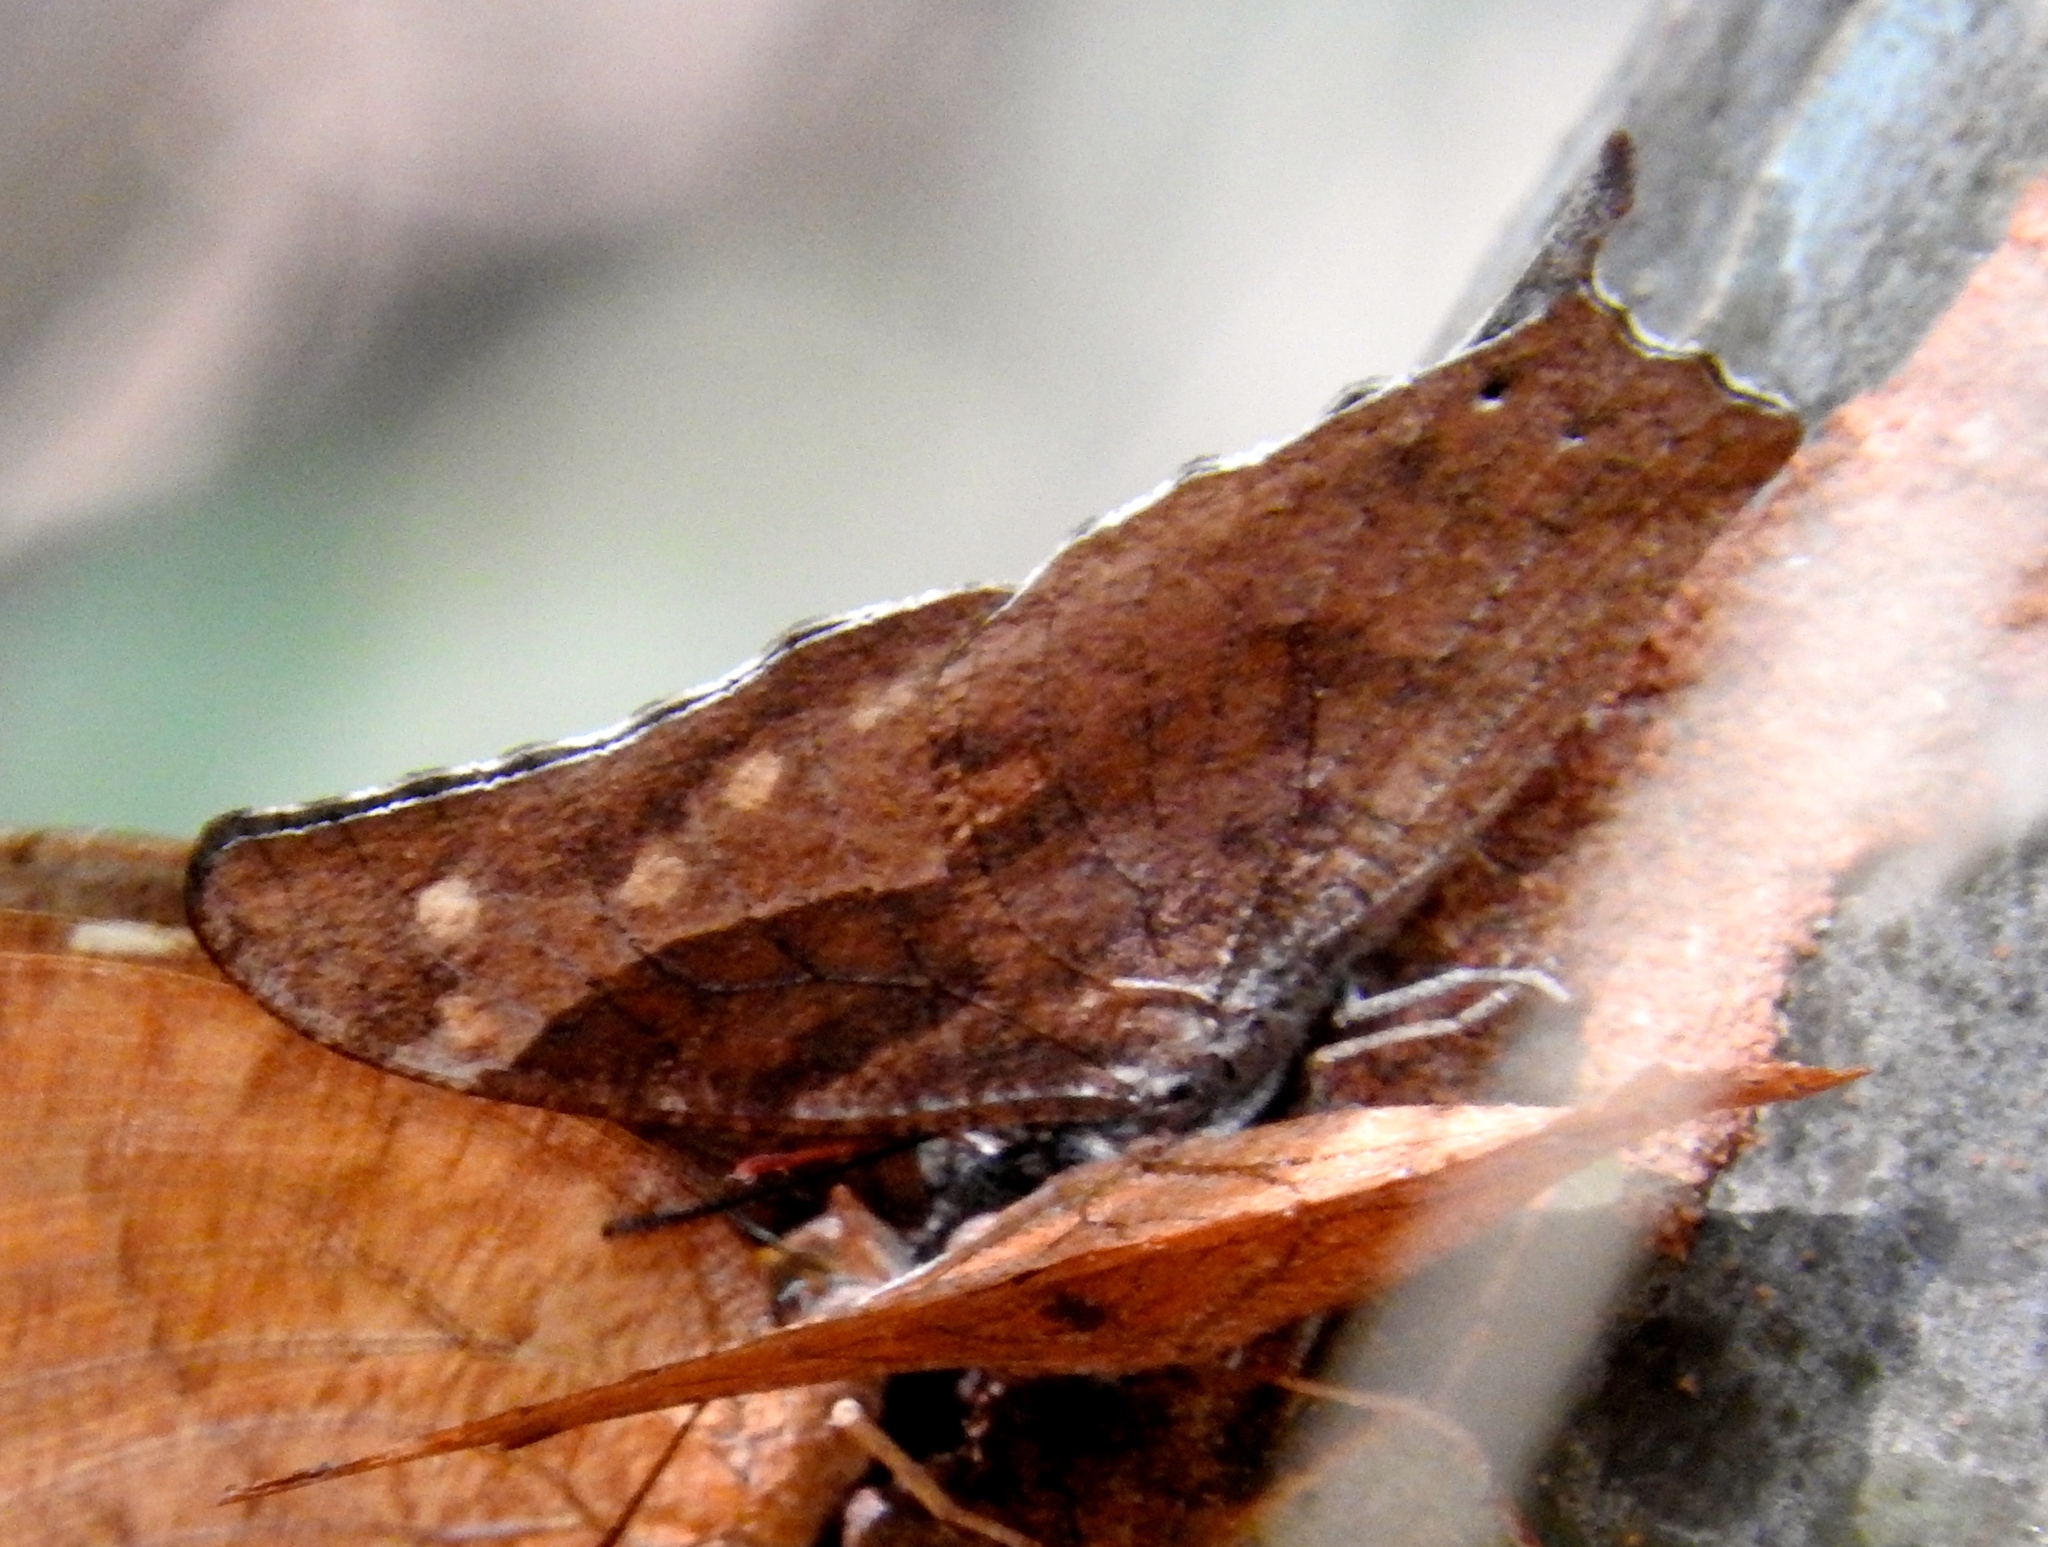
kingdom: Animalia
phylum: Arthropoda
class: Insecta
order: Lepidoptera
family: Nymphalidae
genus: Anaea
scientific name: Anaea pithyusa
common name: Pale-spotted leafwing
